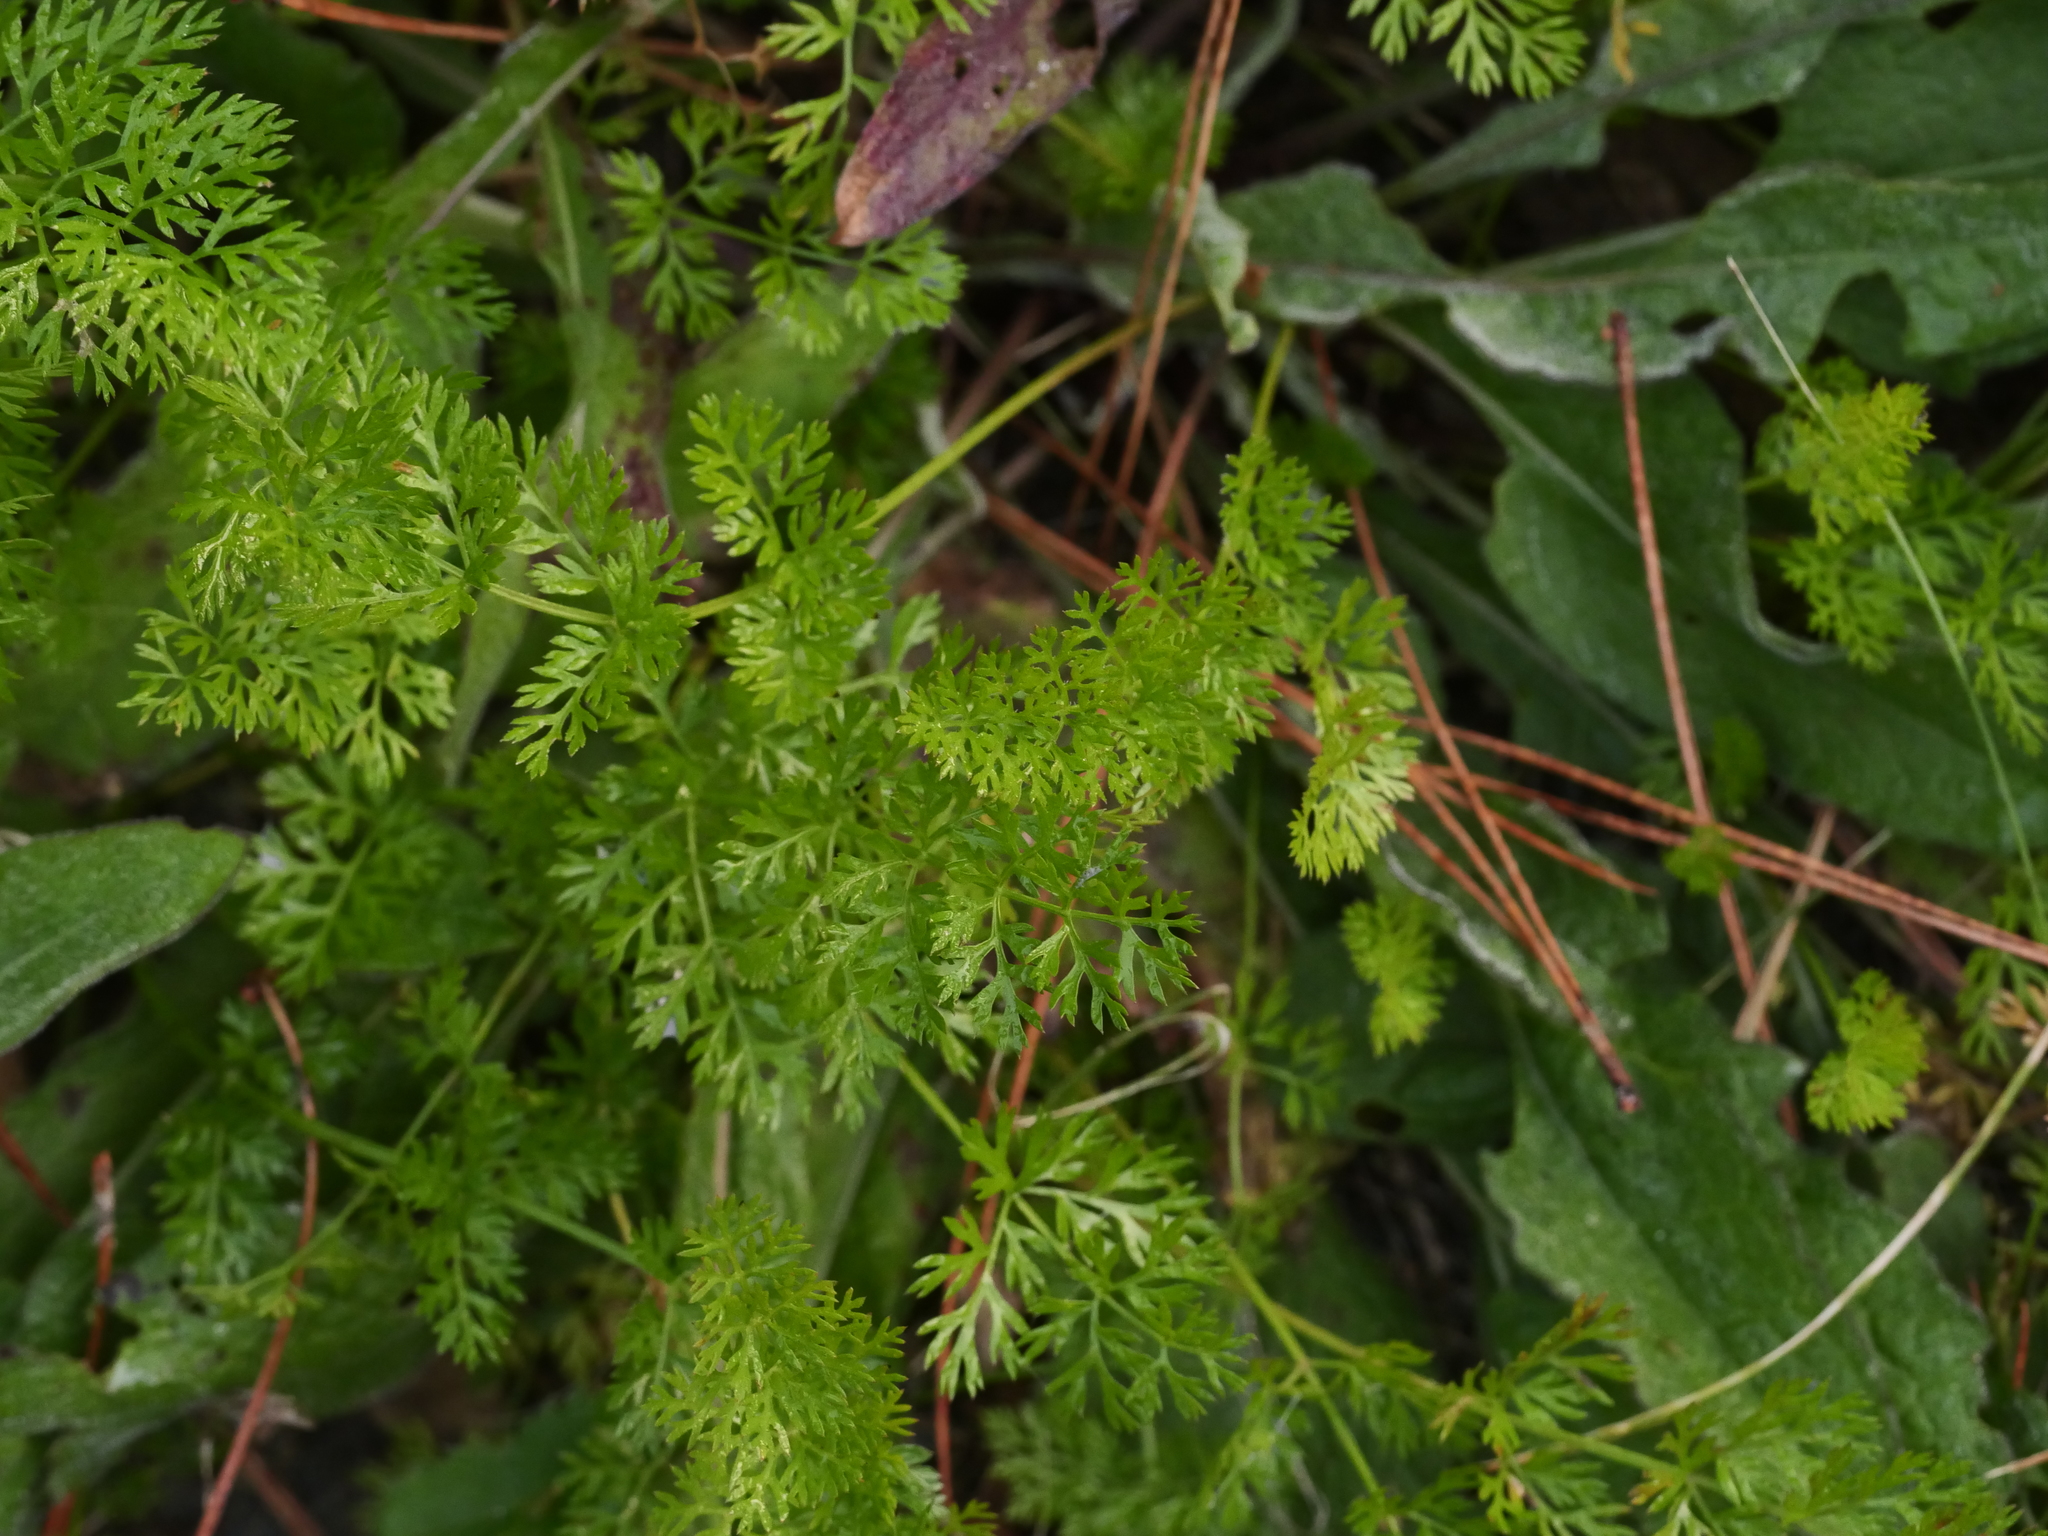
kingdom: Plantae
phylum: Tracheophyta
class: Magnoliopsida
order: Apiales
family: Apiaceae
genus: Daucus
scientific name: Daucus carota
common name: Wild carrot
